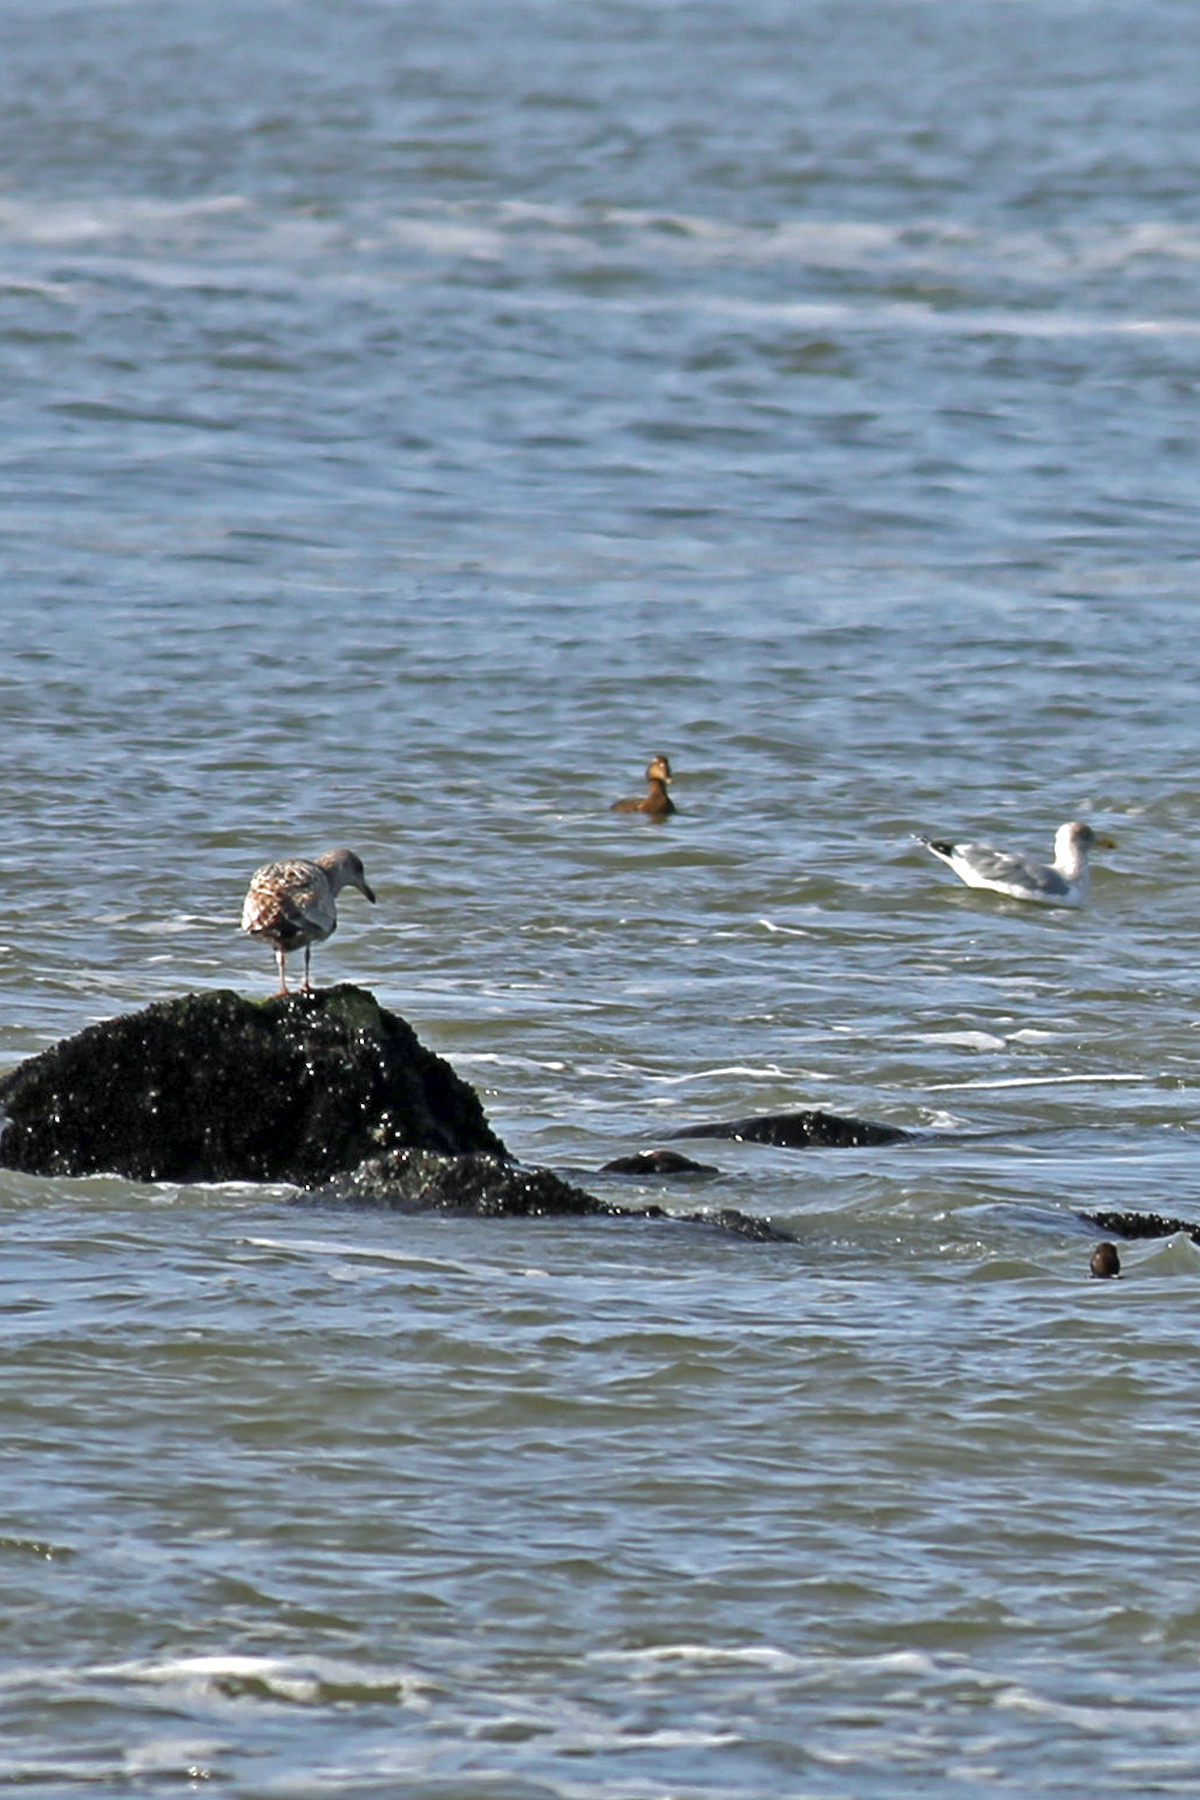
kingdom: Animalia
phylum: Chordata
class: Aves
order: Charadriiformes
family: Laridae
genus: Larus
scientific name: Larus argentatus
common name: Herring gull
